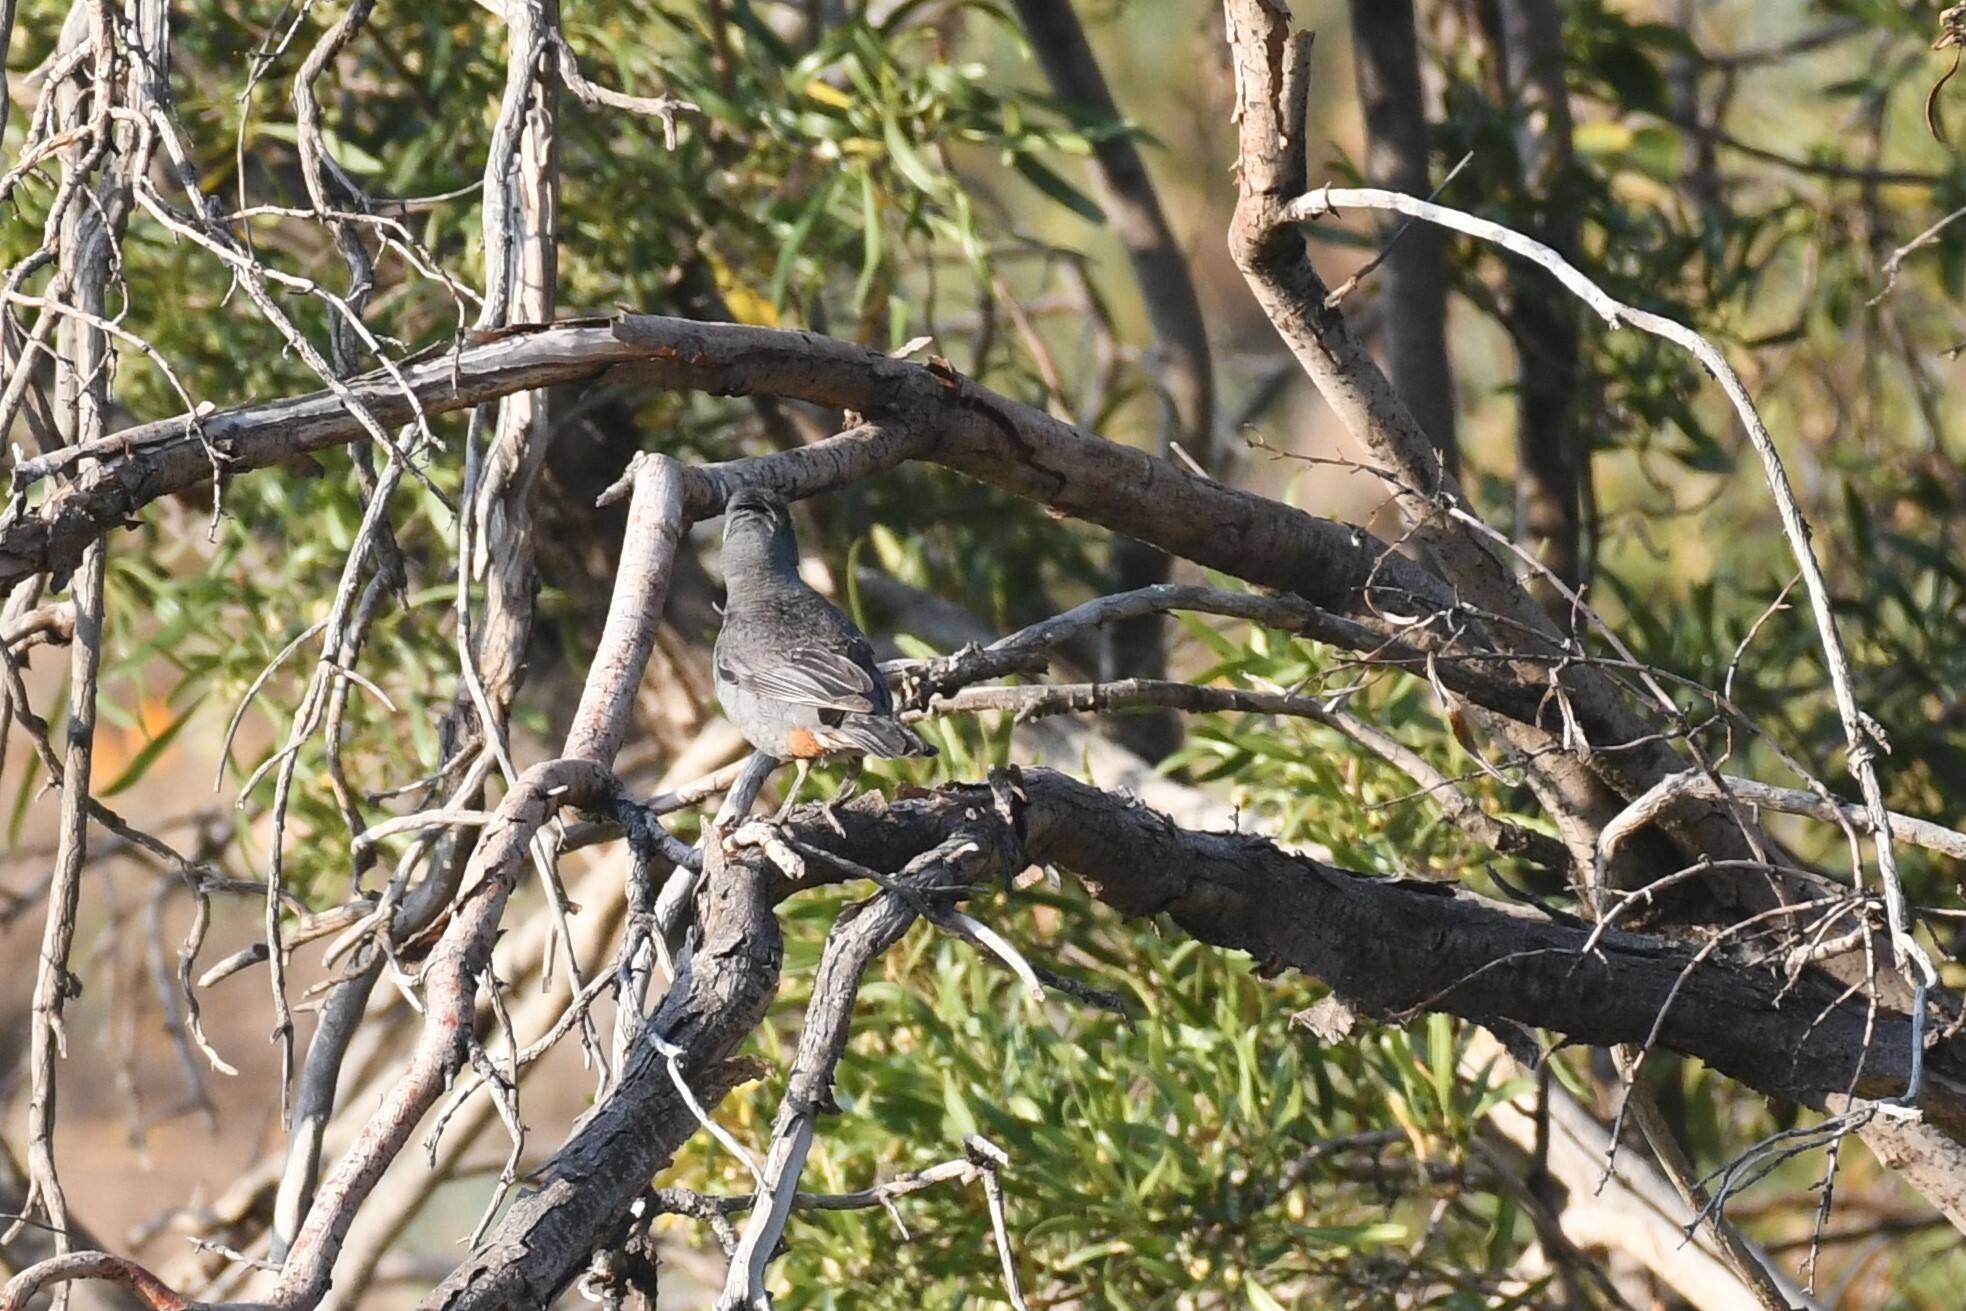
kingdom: Animalia
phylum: Chordata
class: Aves
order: Passeriformes
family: Thraupidae
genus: Diuca
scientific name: Diuca diuca
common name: Common diuca finch
